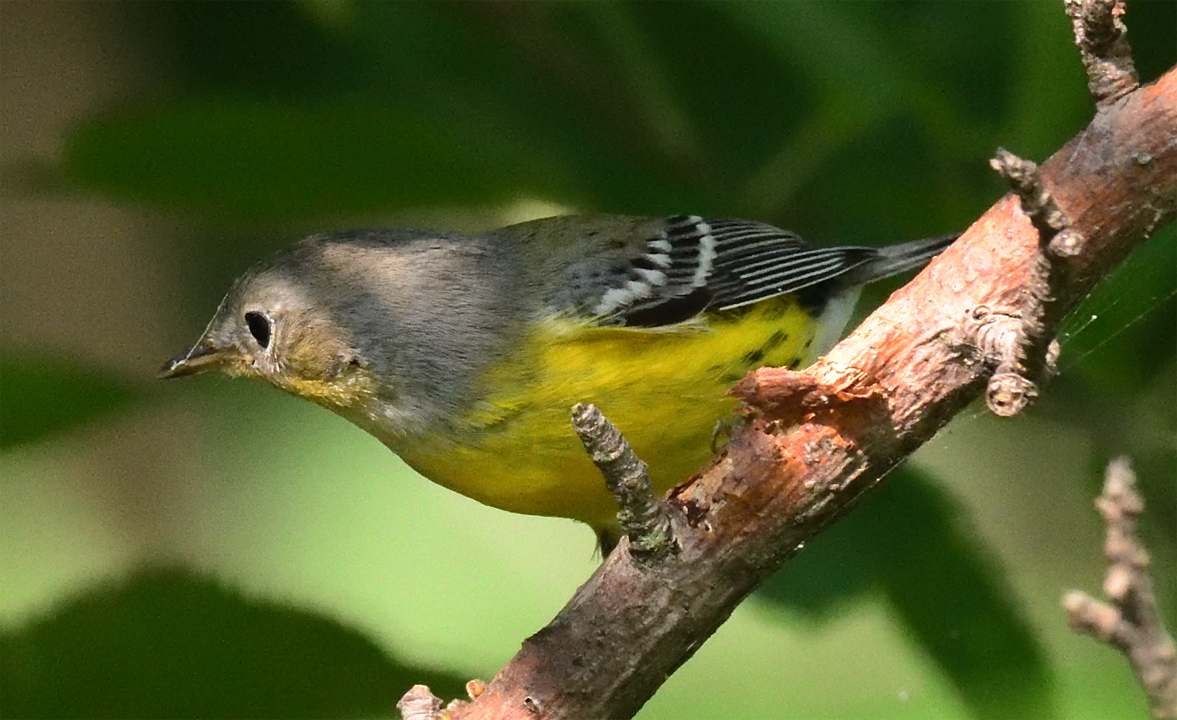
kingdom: Animalia
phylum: Chordata
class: Aves
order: Passeriformes
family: Parulidae
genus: Setophaga
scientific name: Setophaga magnolia
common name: Magnolia warbler
